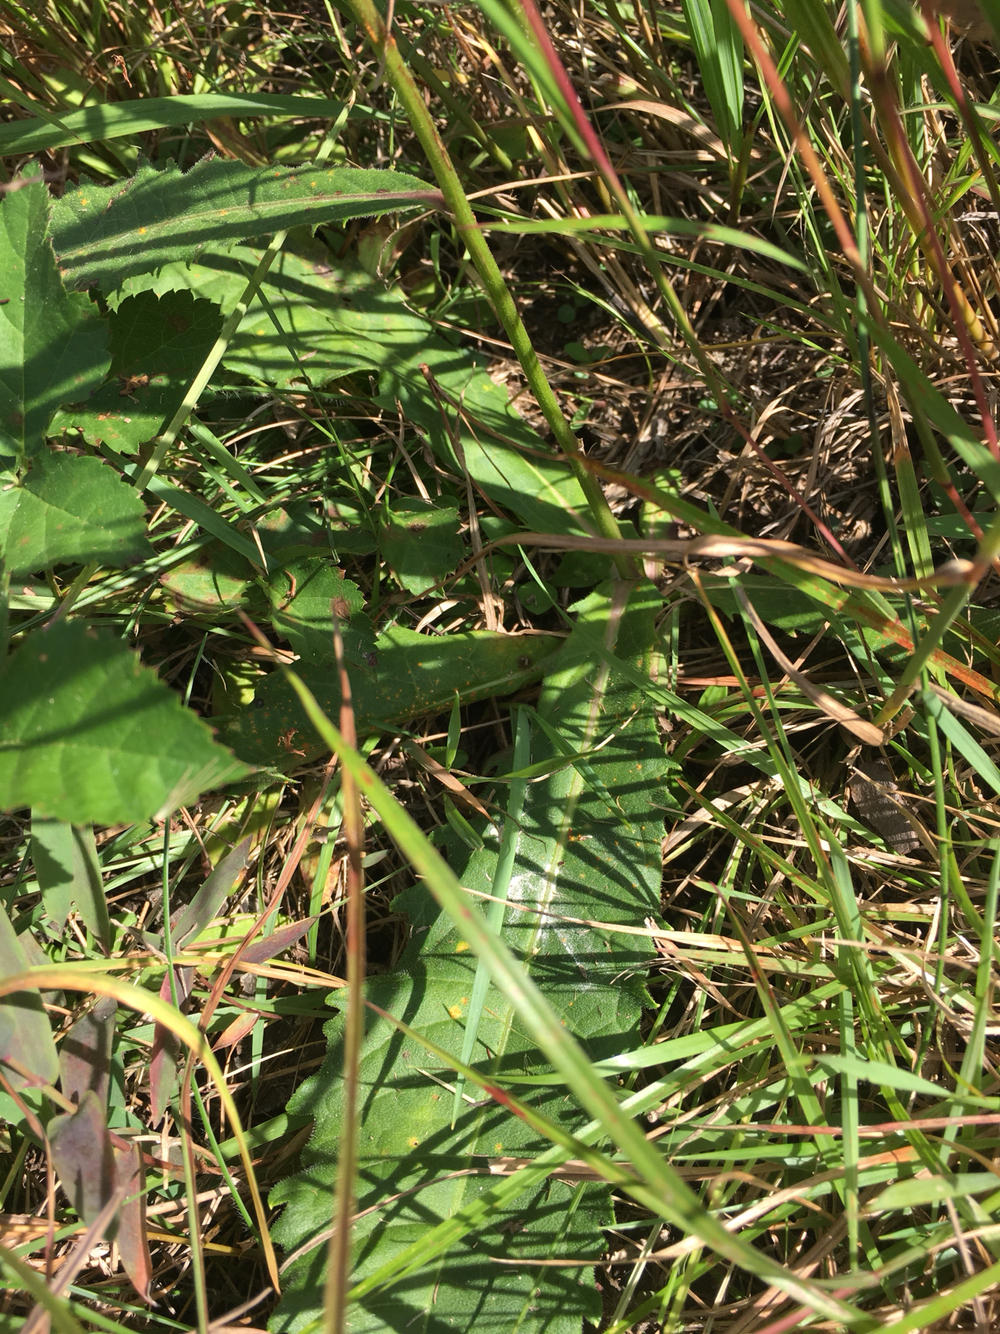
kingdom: Plantae
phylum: Tracheophyta
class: Magnoliopsida
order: Asterales
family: Asteraceae
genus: Vernonia
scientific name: Vernonia acaulis
